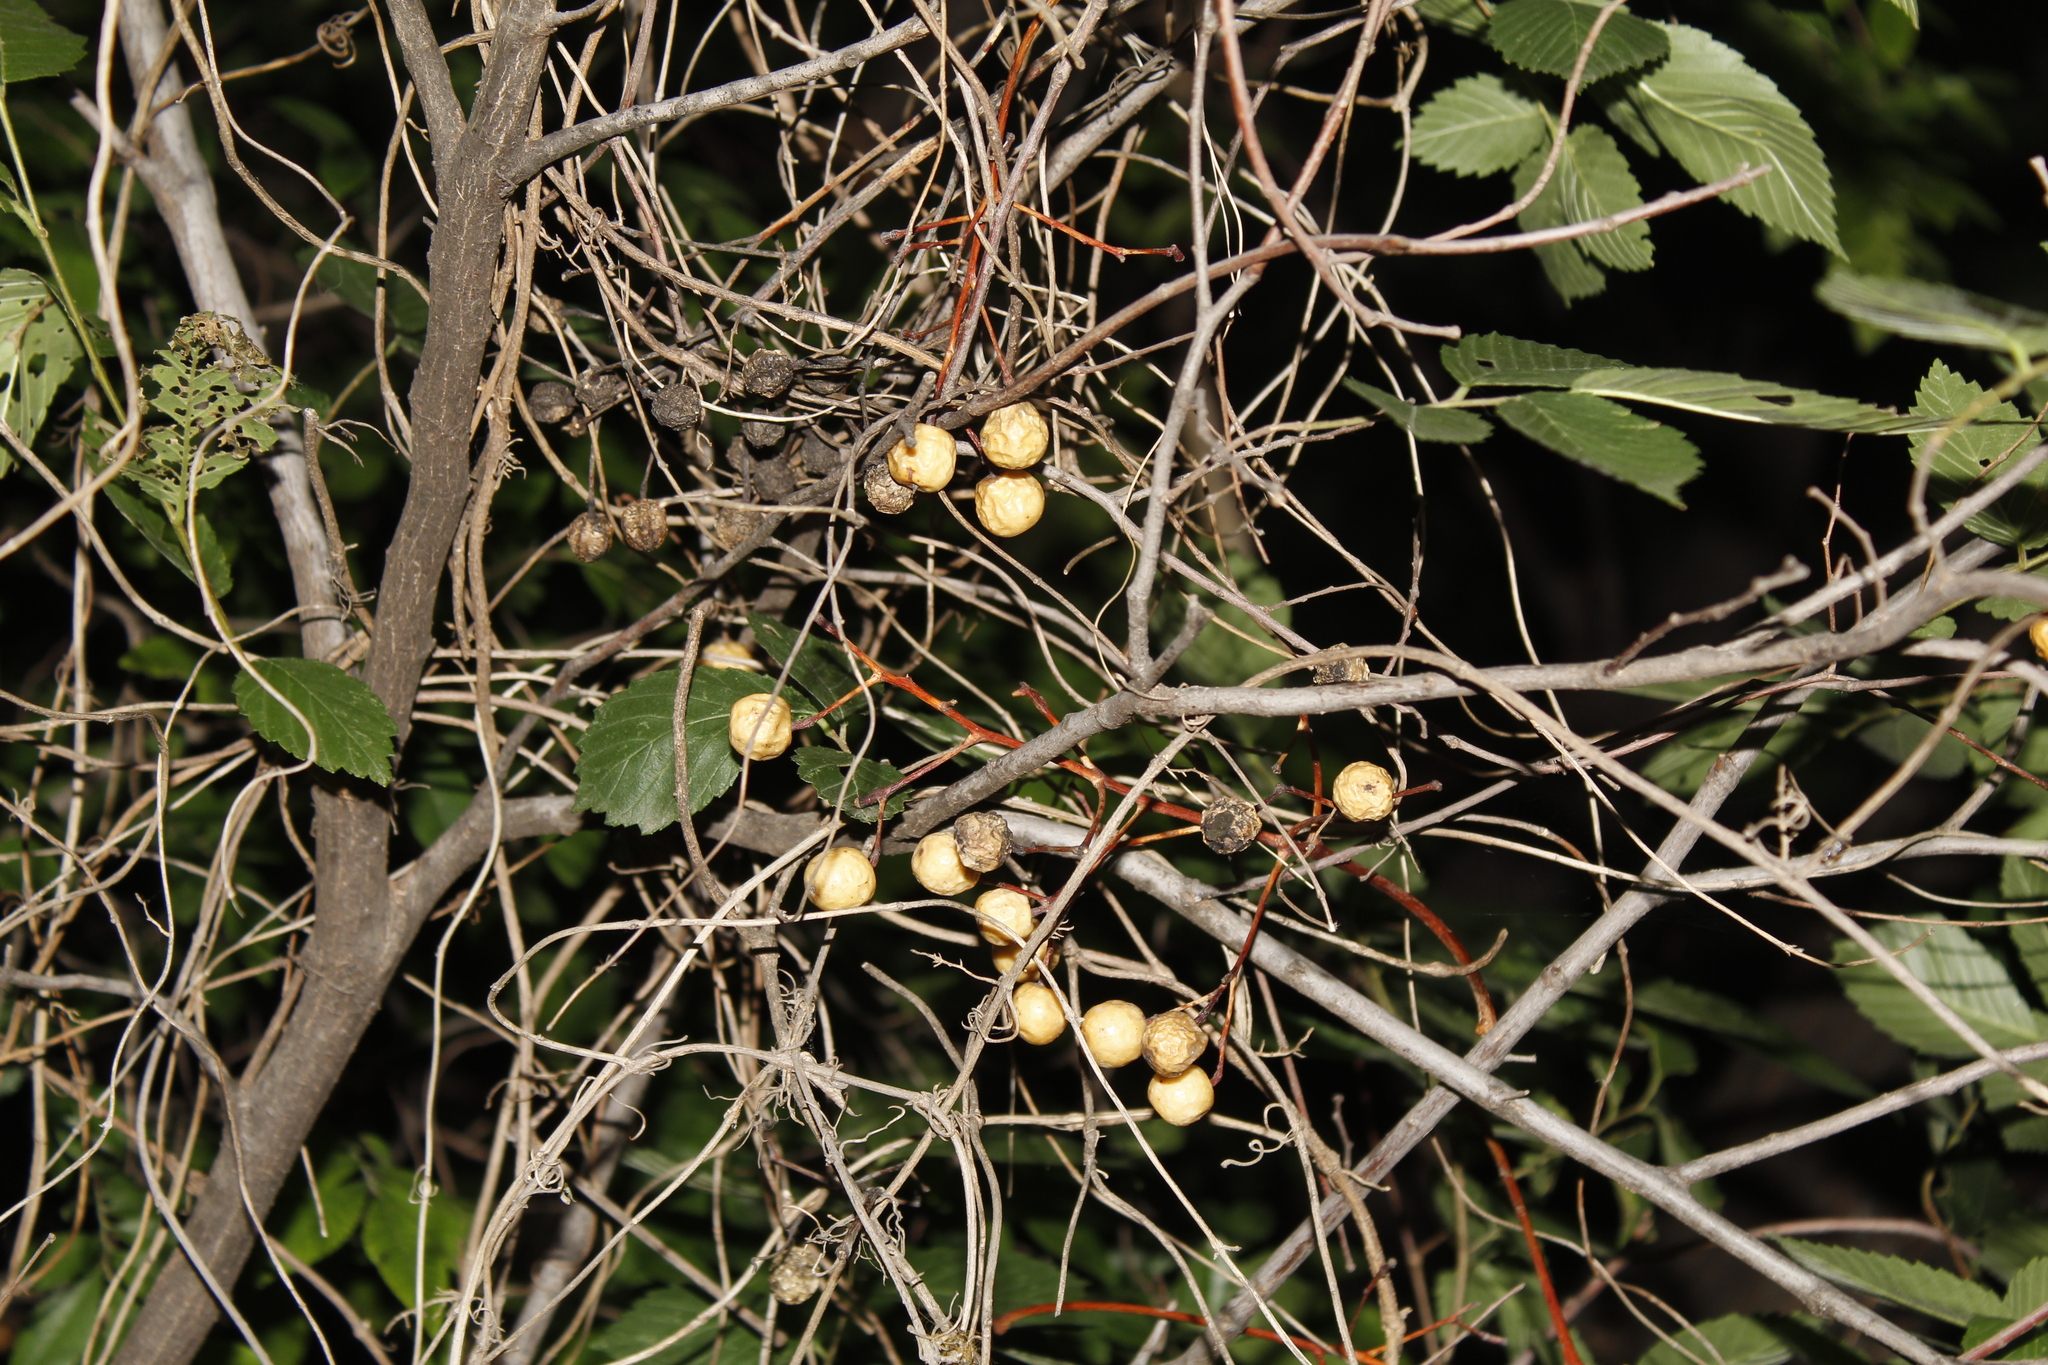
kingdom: Plantae
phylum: Tracheophyta
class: Magnoliopsida
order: Sapindales
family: Meliaceae
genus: Melia
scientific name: Melia azedarach
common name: Chinaberrytree
